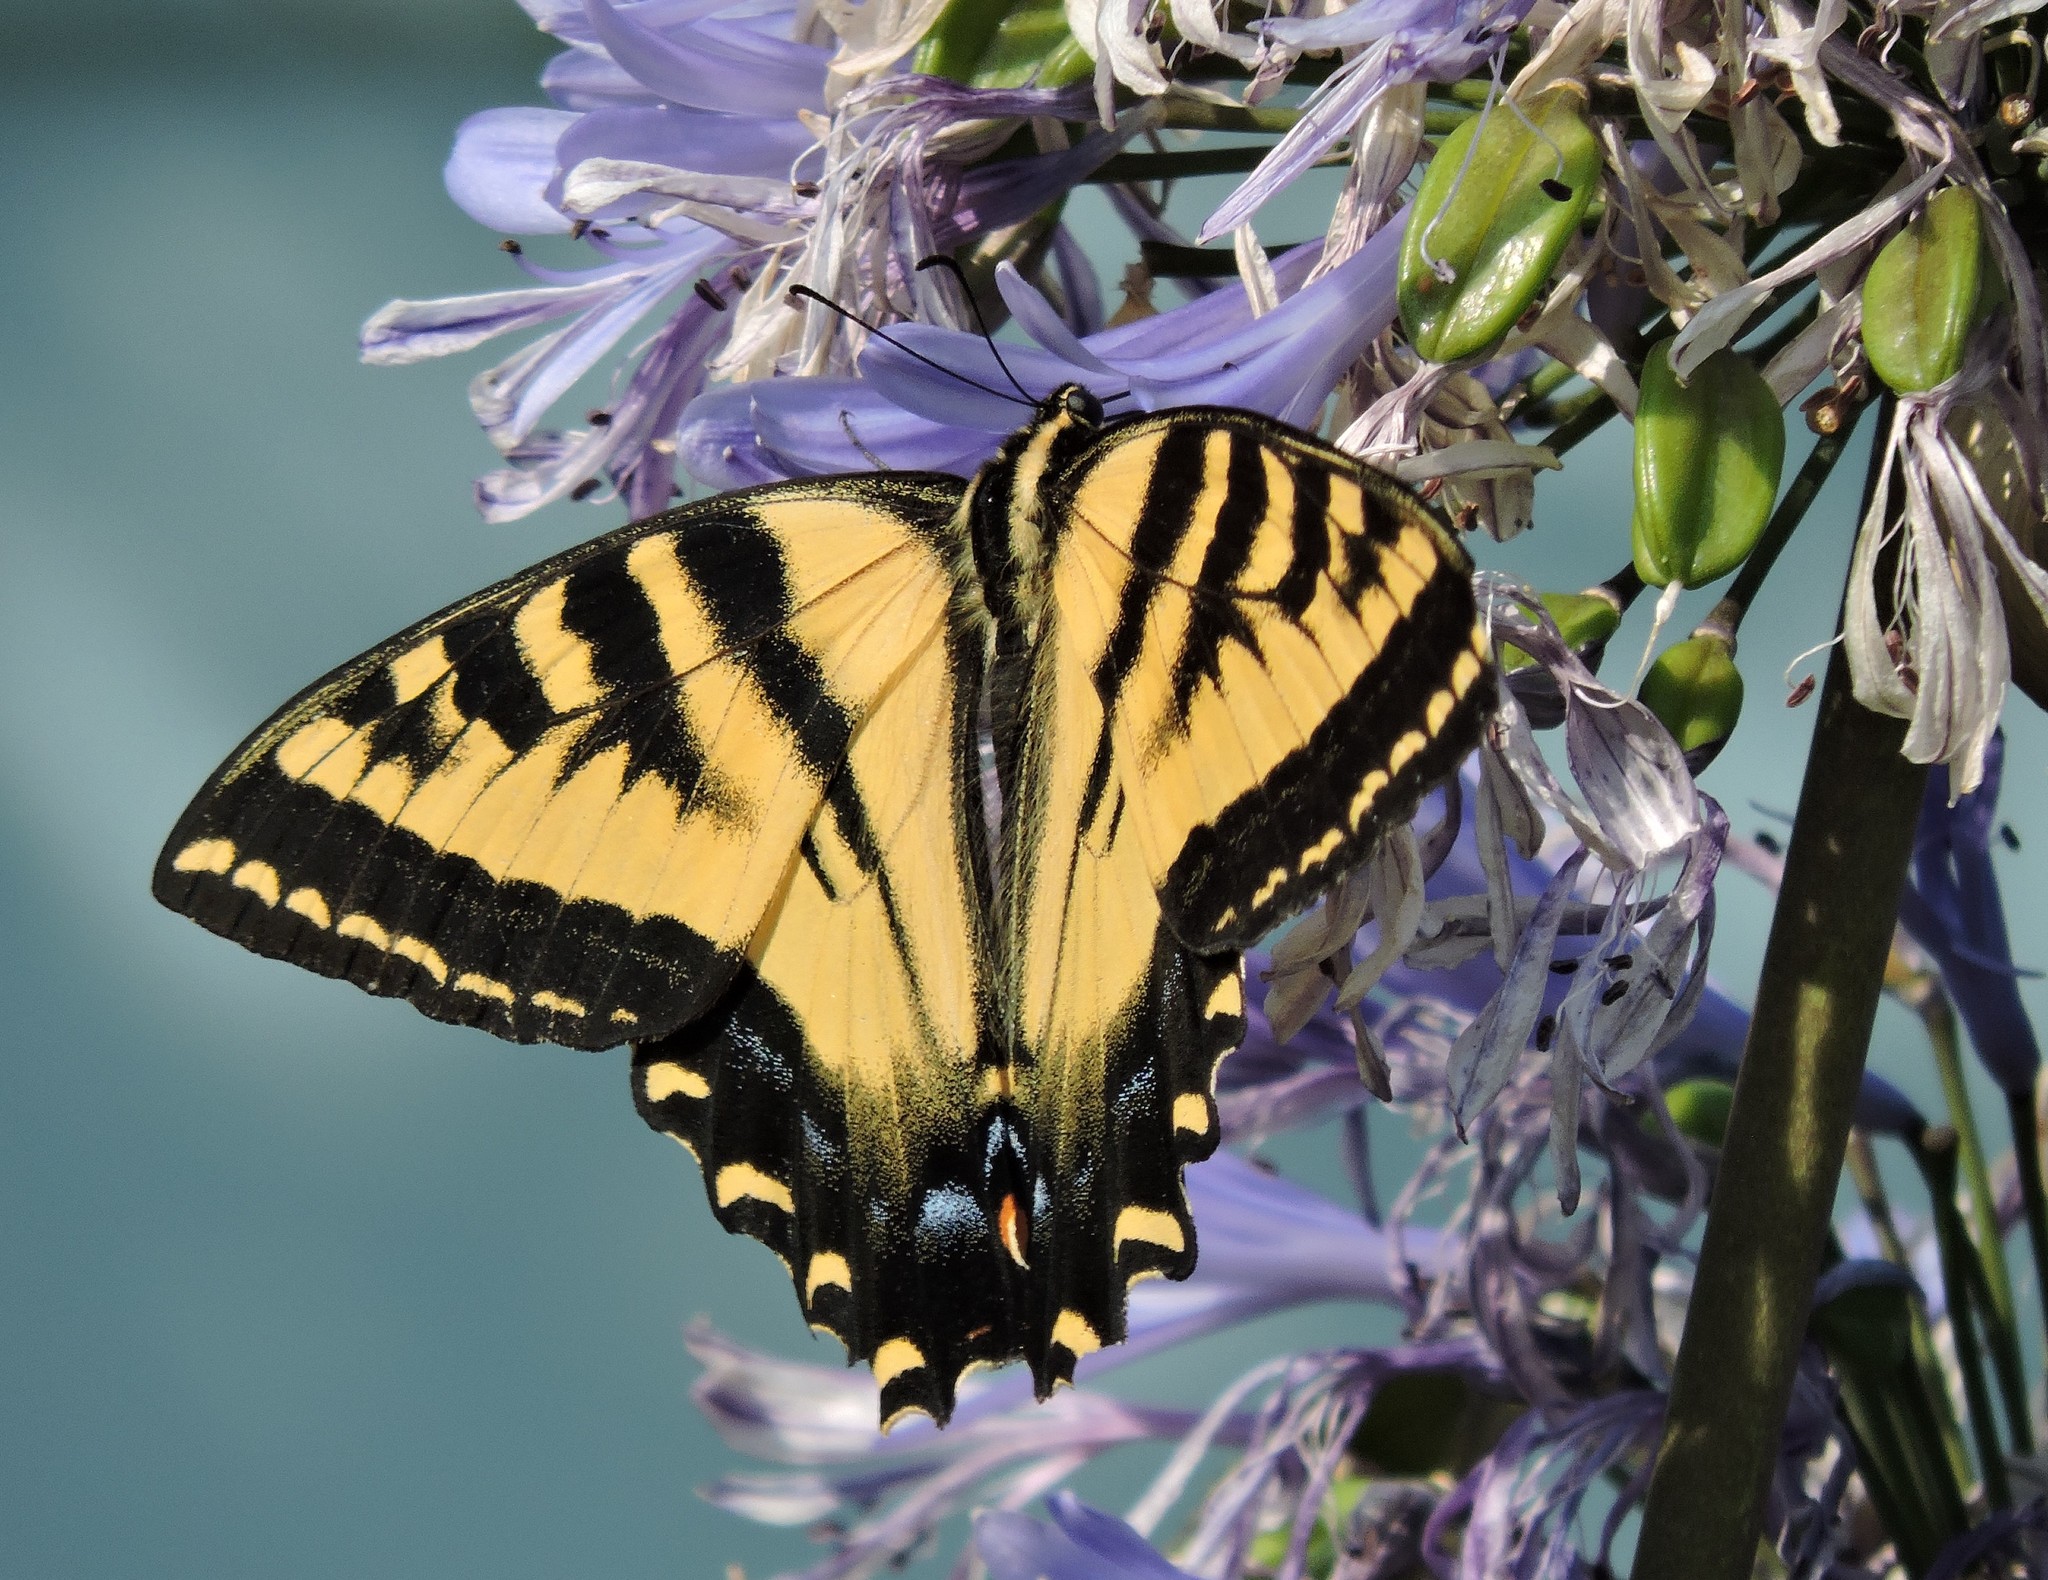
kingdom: Animalia
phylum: Arthropoda
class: Insecta
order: Lepidoptera
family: Papilionidae
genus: Papilio
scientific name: Papilio rutulus
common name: Western tiger swallowtail
